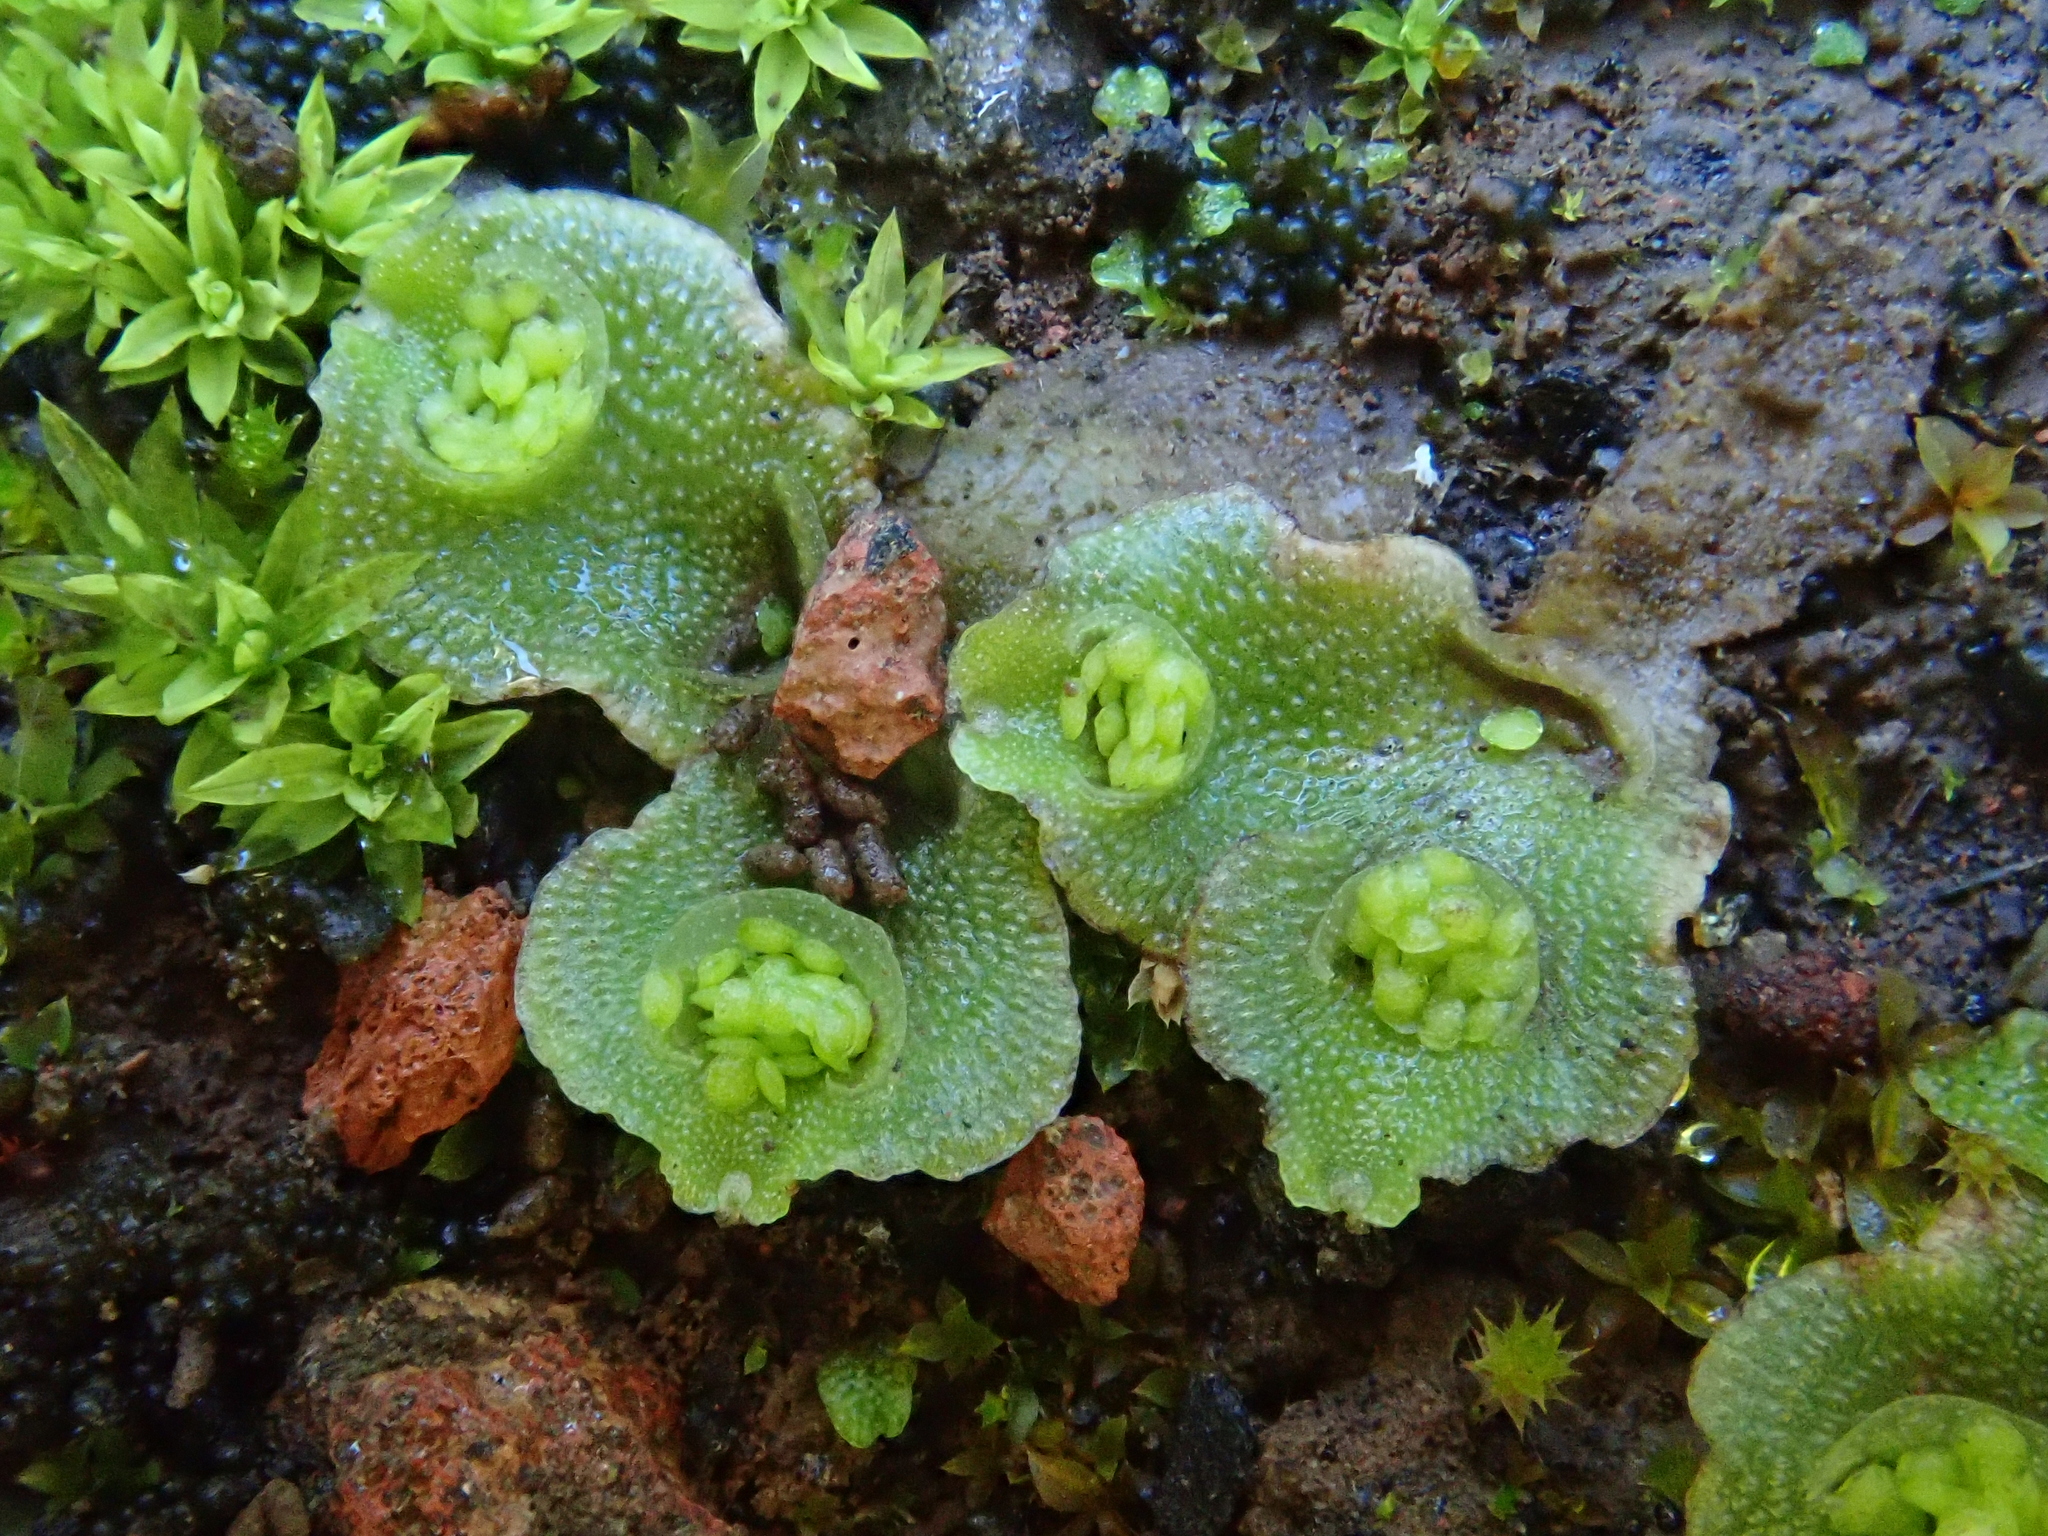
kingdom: Plantae
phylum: Marchantiophyta
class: Marchantiopsida
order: Lunulariales
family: Lunulariaceae
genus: Lunularia
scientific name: Lunularia cruciata
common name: Crescent-cup liverwort
